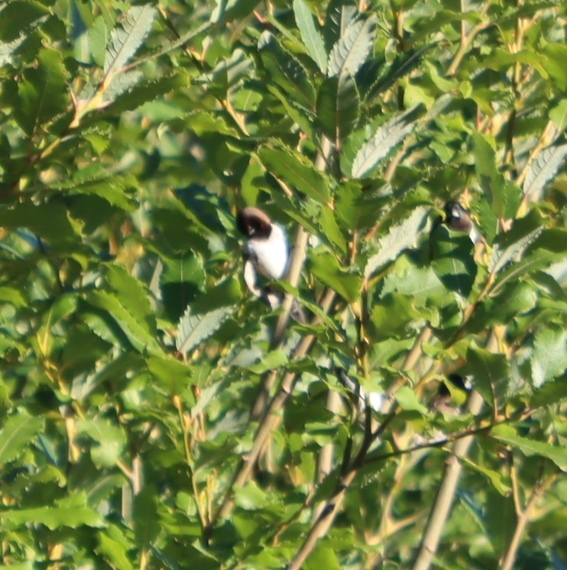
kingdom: Animalia
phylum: Chordata
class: Aves
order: Passeriformes
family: Estrildidae
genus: Lonchura
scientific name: Lonchura cucullata
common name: Bronze mannikin
